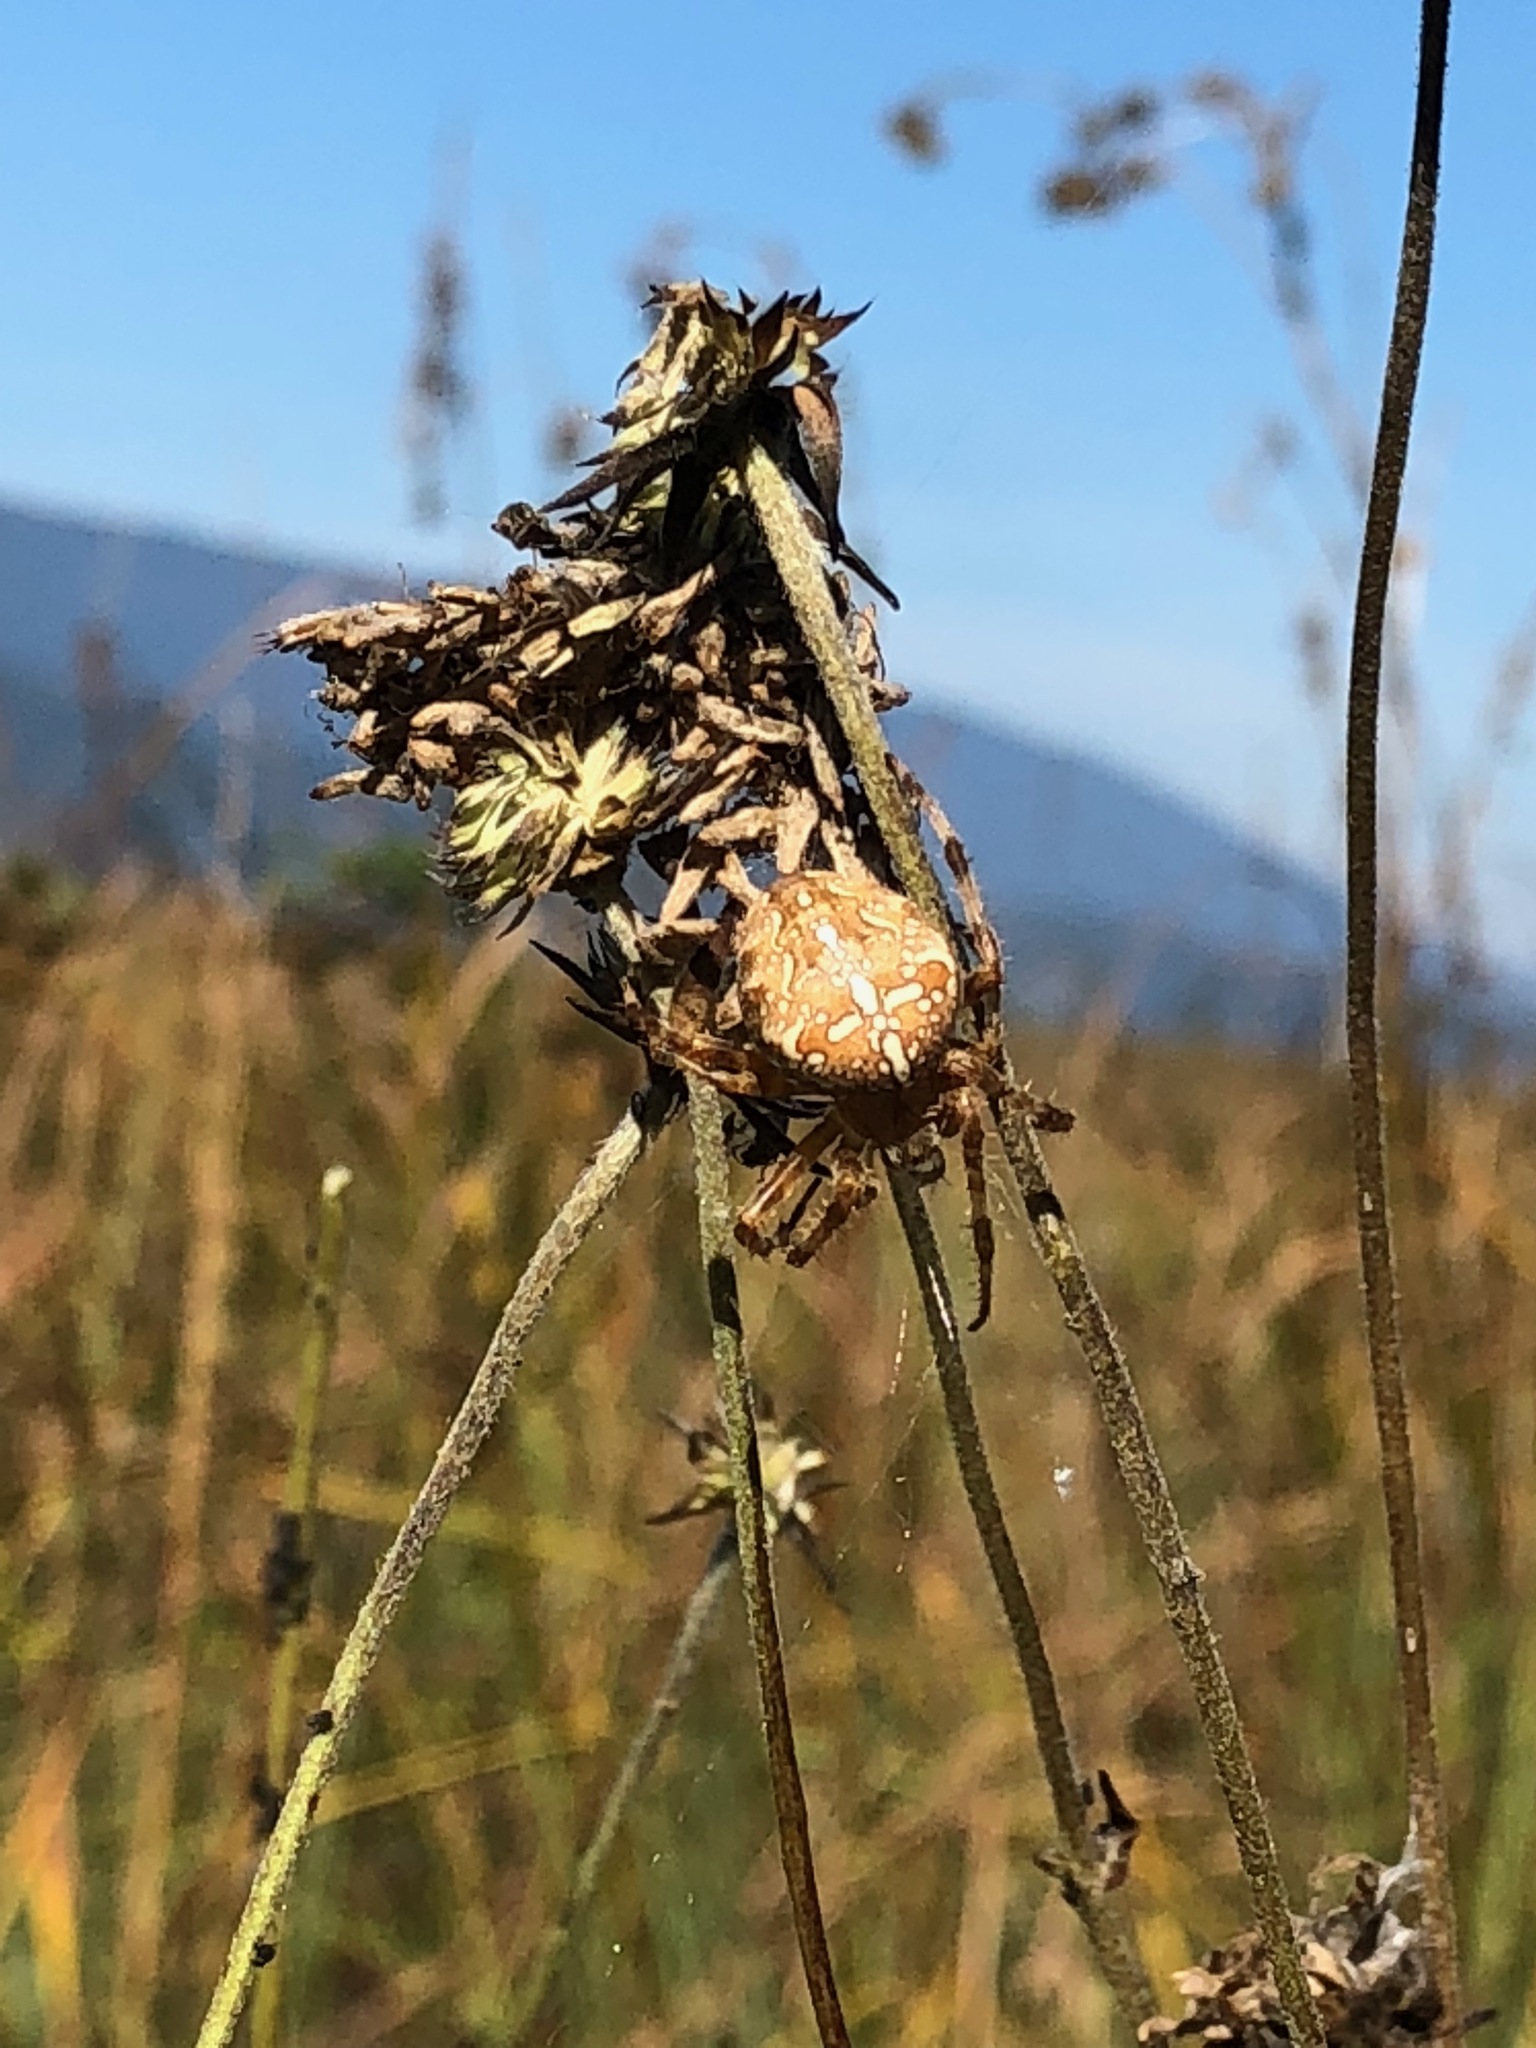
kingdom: Animalia
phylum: Arthropoda
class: Arachnida
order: Araneae
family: Araneidae
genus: Araneus
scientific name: Araneus diadematus
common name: Cross orbweaver
